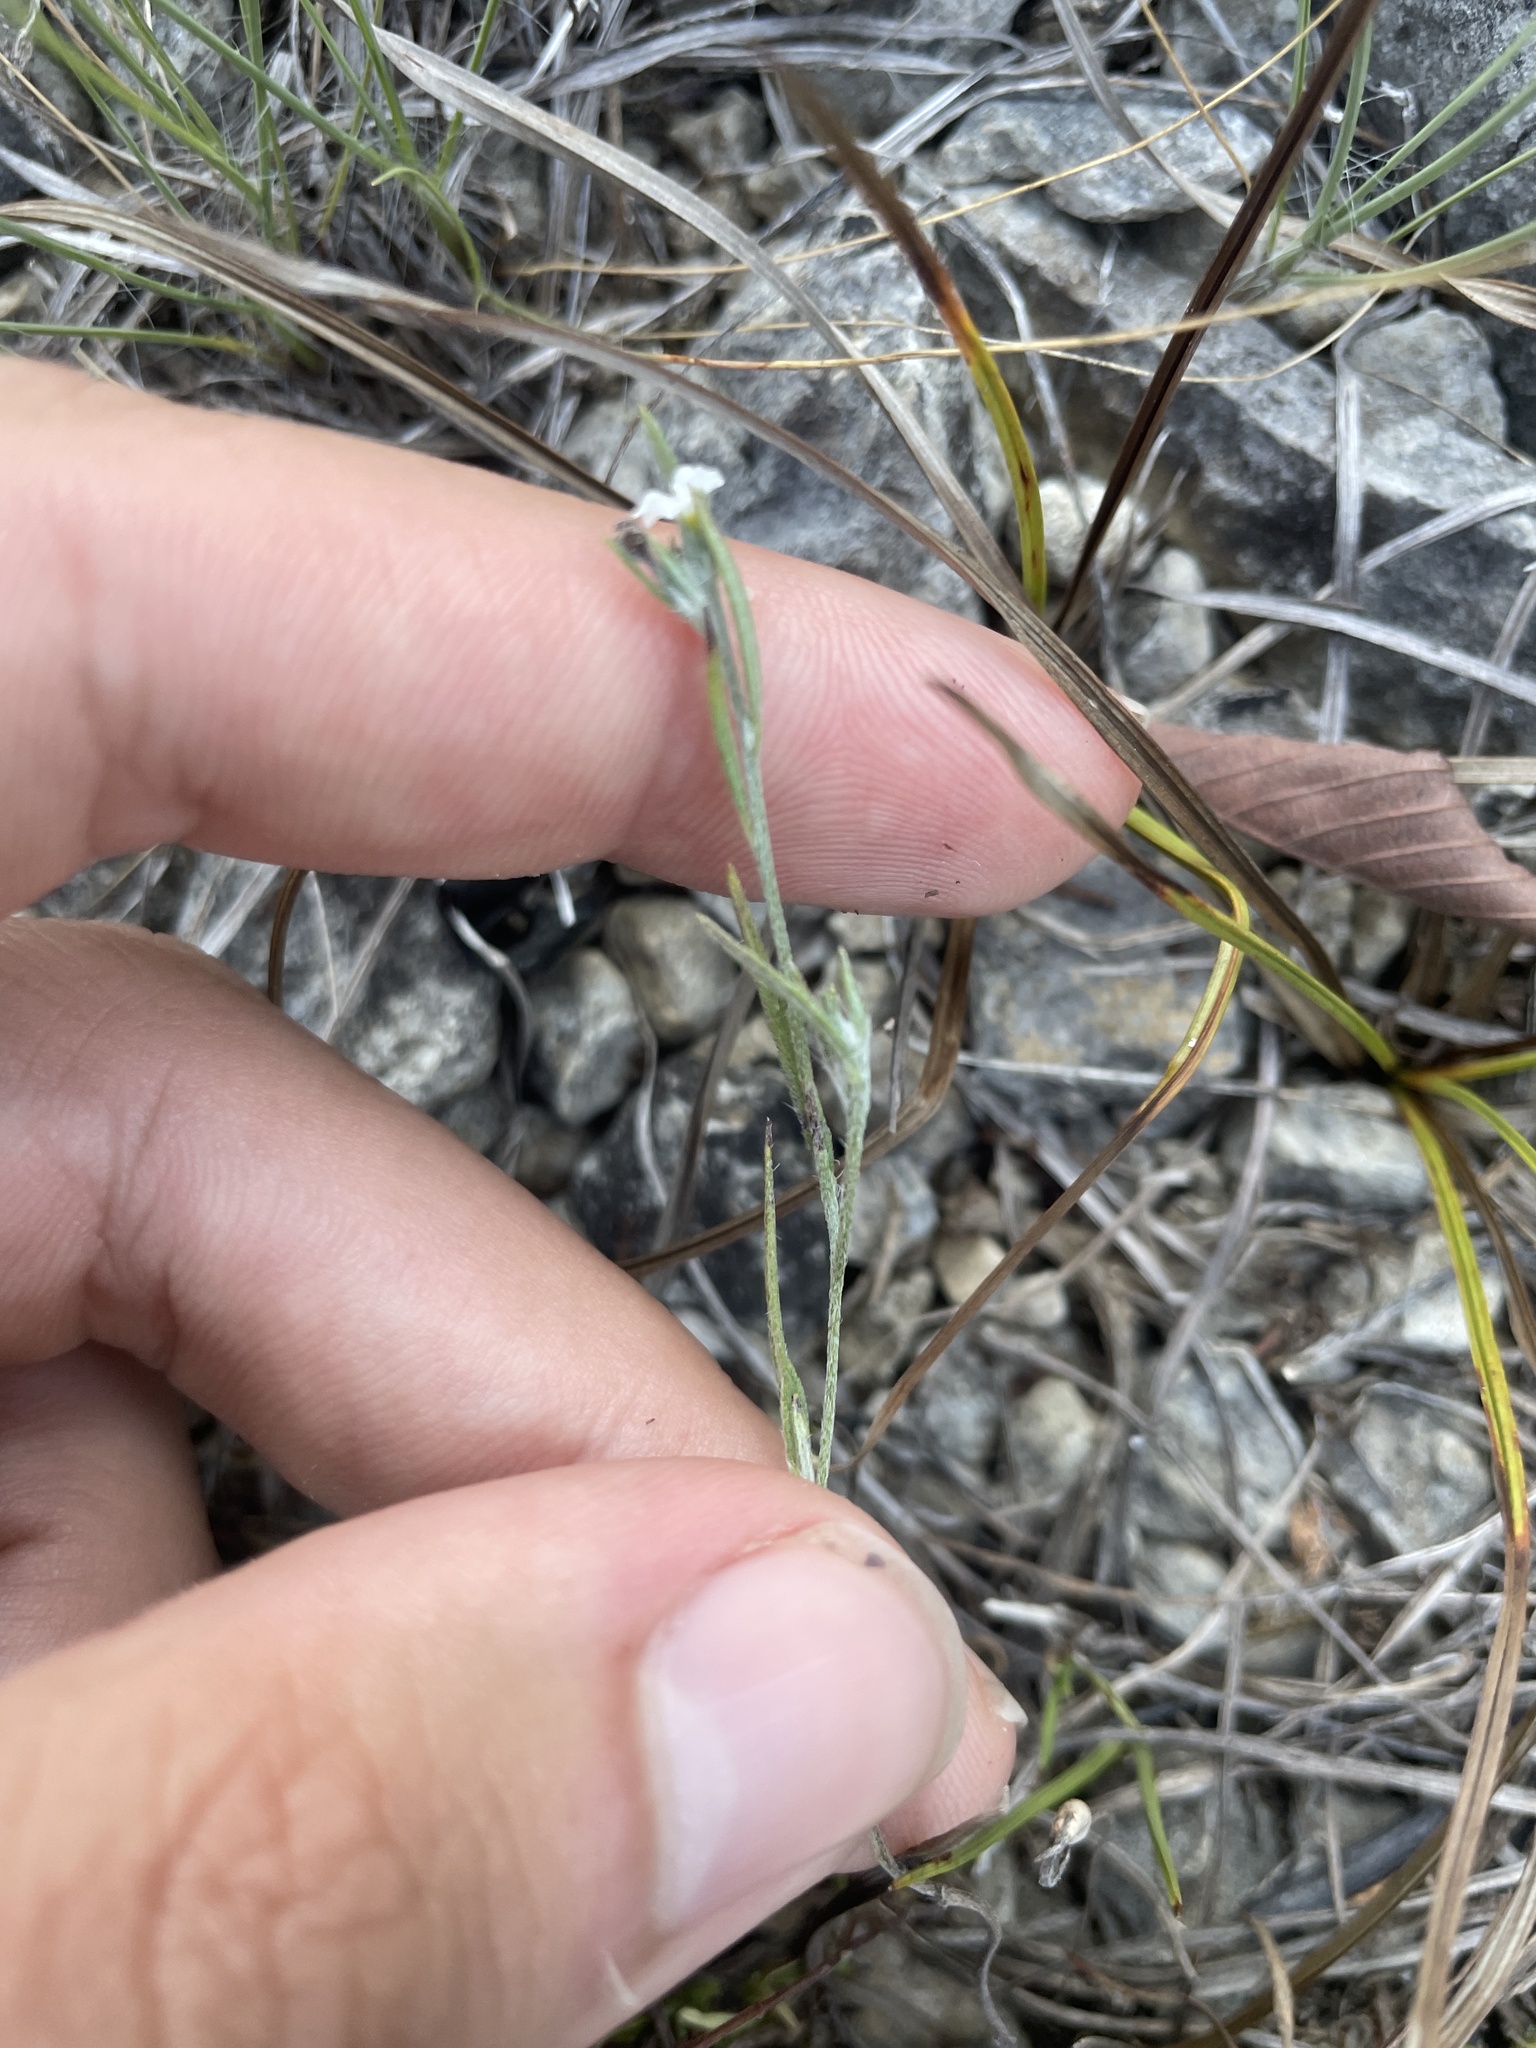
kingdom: Plantae
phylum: Tracheophyta
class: Magnoliopsida
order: Boraginales
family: Heliotropiaceae
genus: Euploca
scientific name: Euploca tenella
